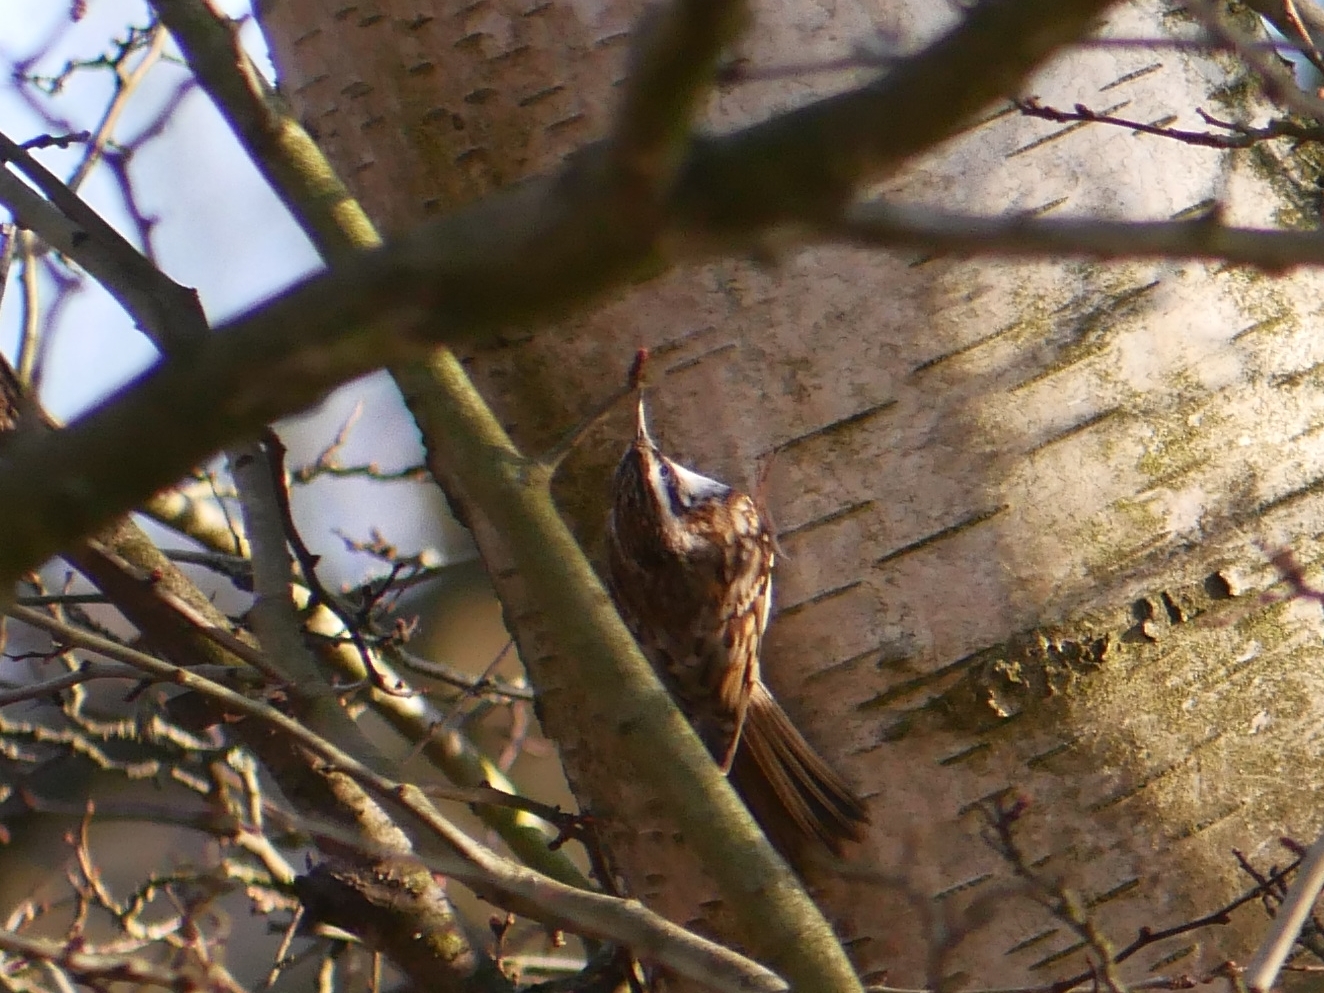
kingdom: Animalia
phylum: Chordata
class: Aves
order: Passeriformes
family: Certhiidae
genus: Certhia
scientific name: Certhia familiaris
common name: Eurasian treecreeper
